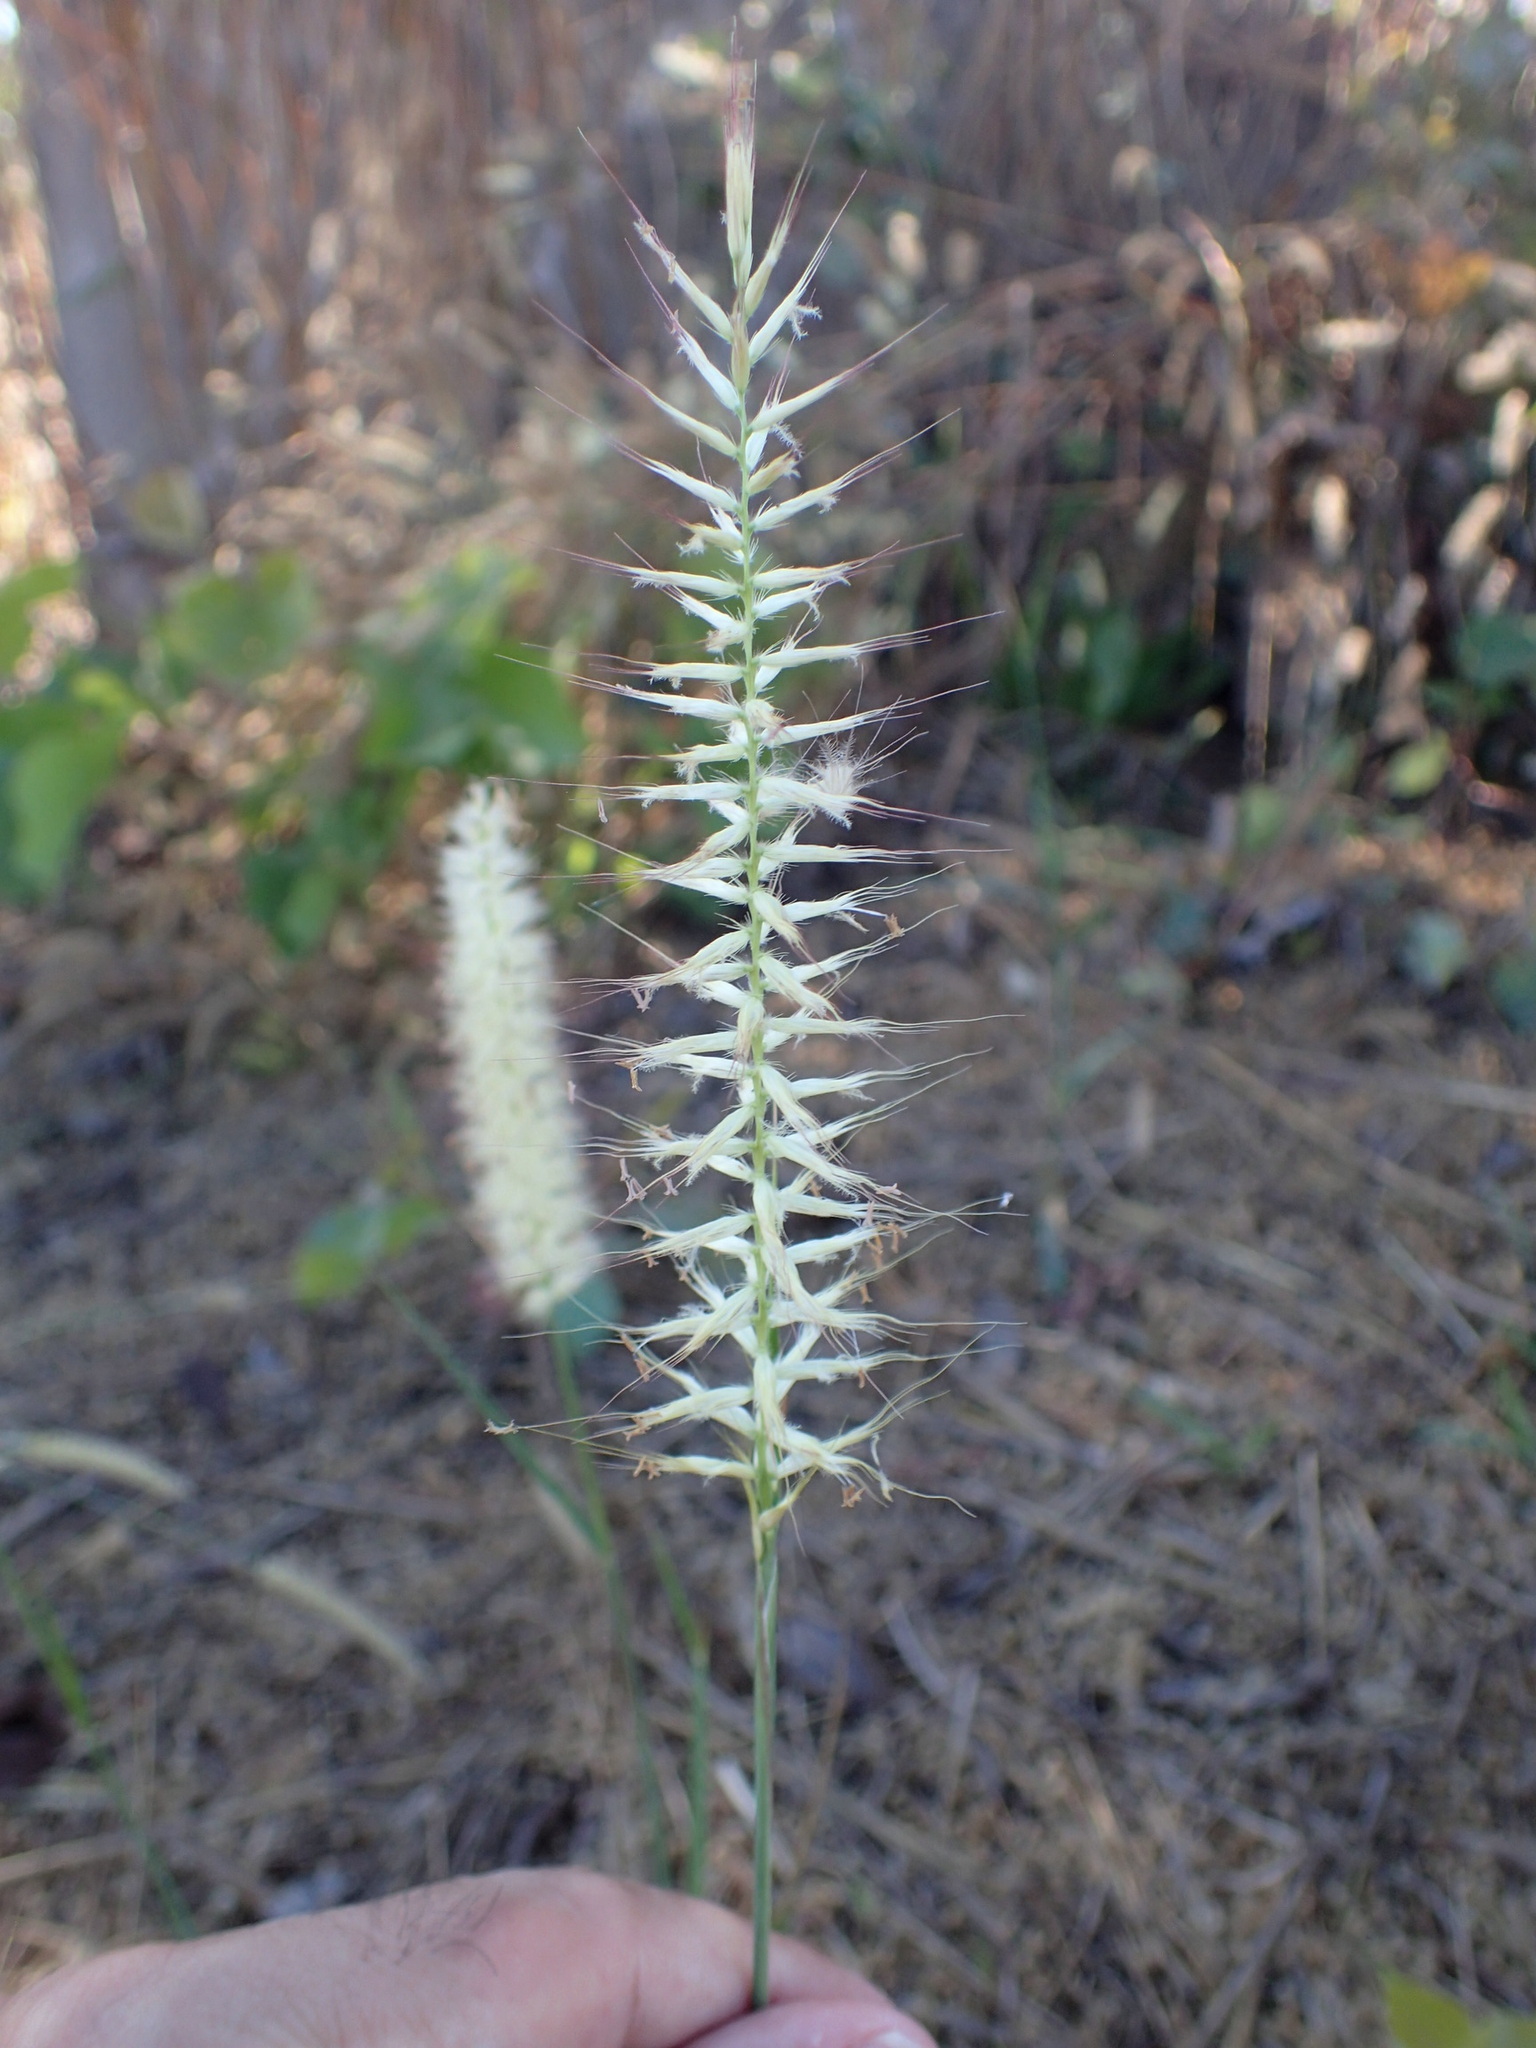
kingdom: Plantae
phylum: Tracheophyta
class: Liliopsida
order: Poales
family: Poaceae
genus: Cenchrus
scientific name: Cenchrus pedicellatus
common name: Hairy fountain grass
